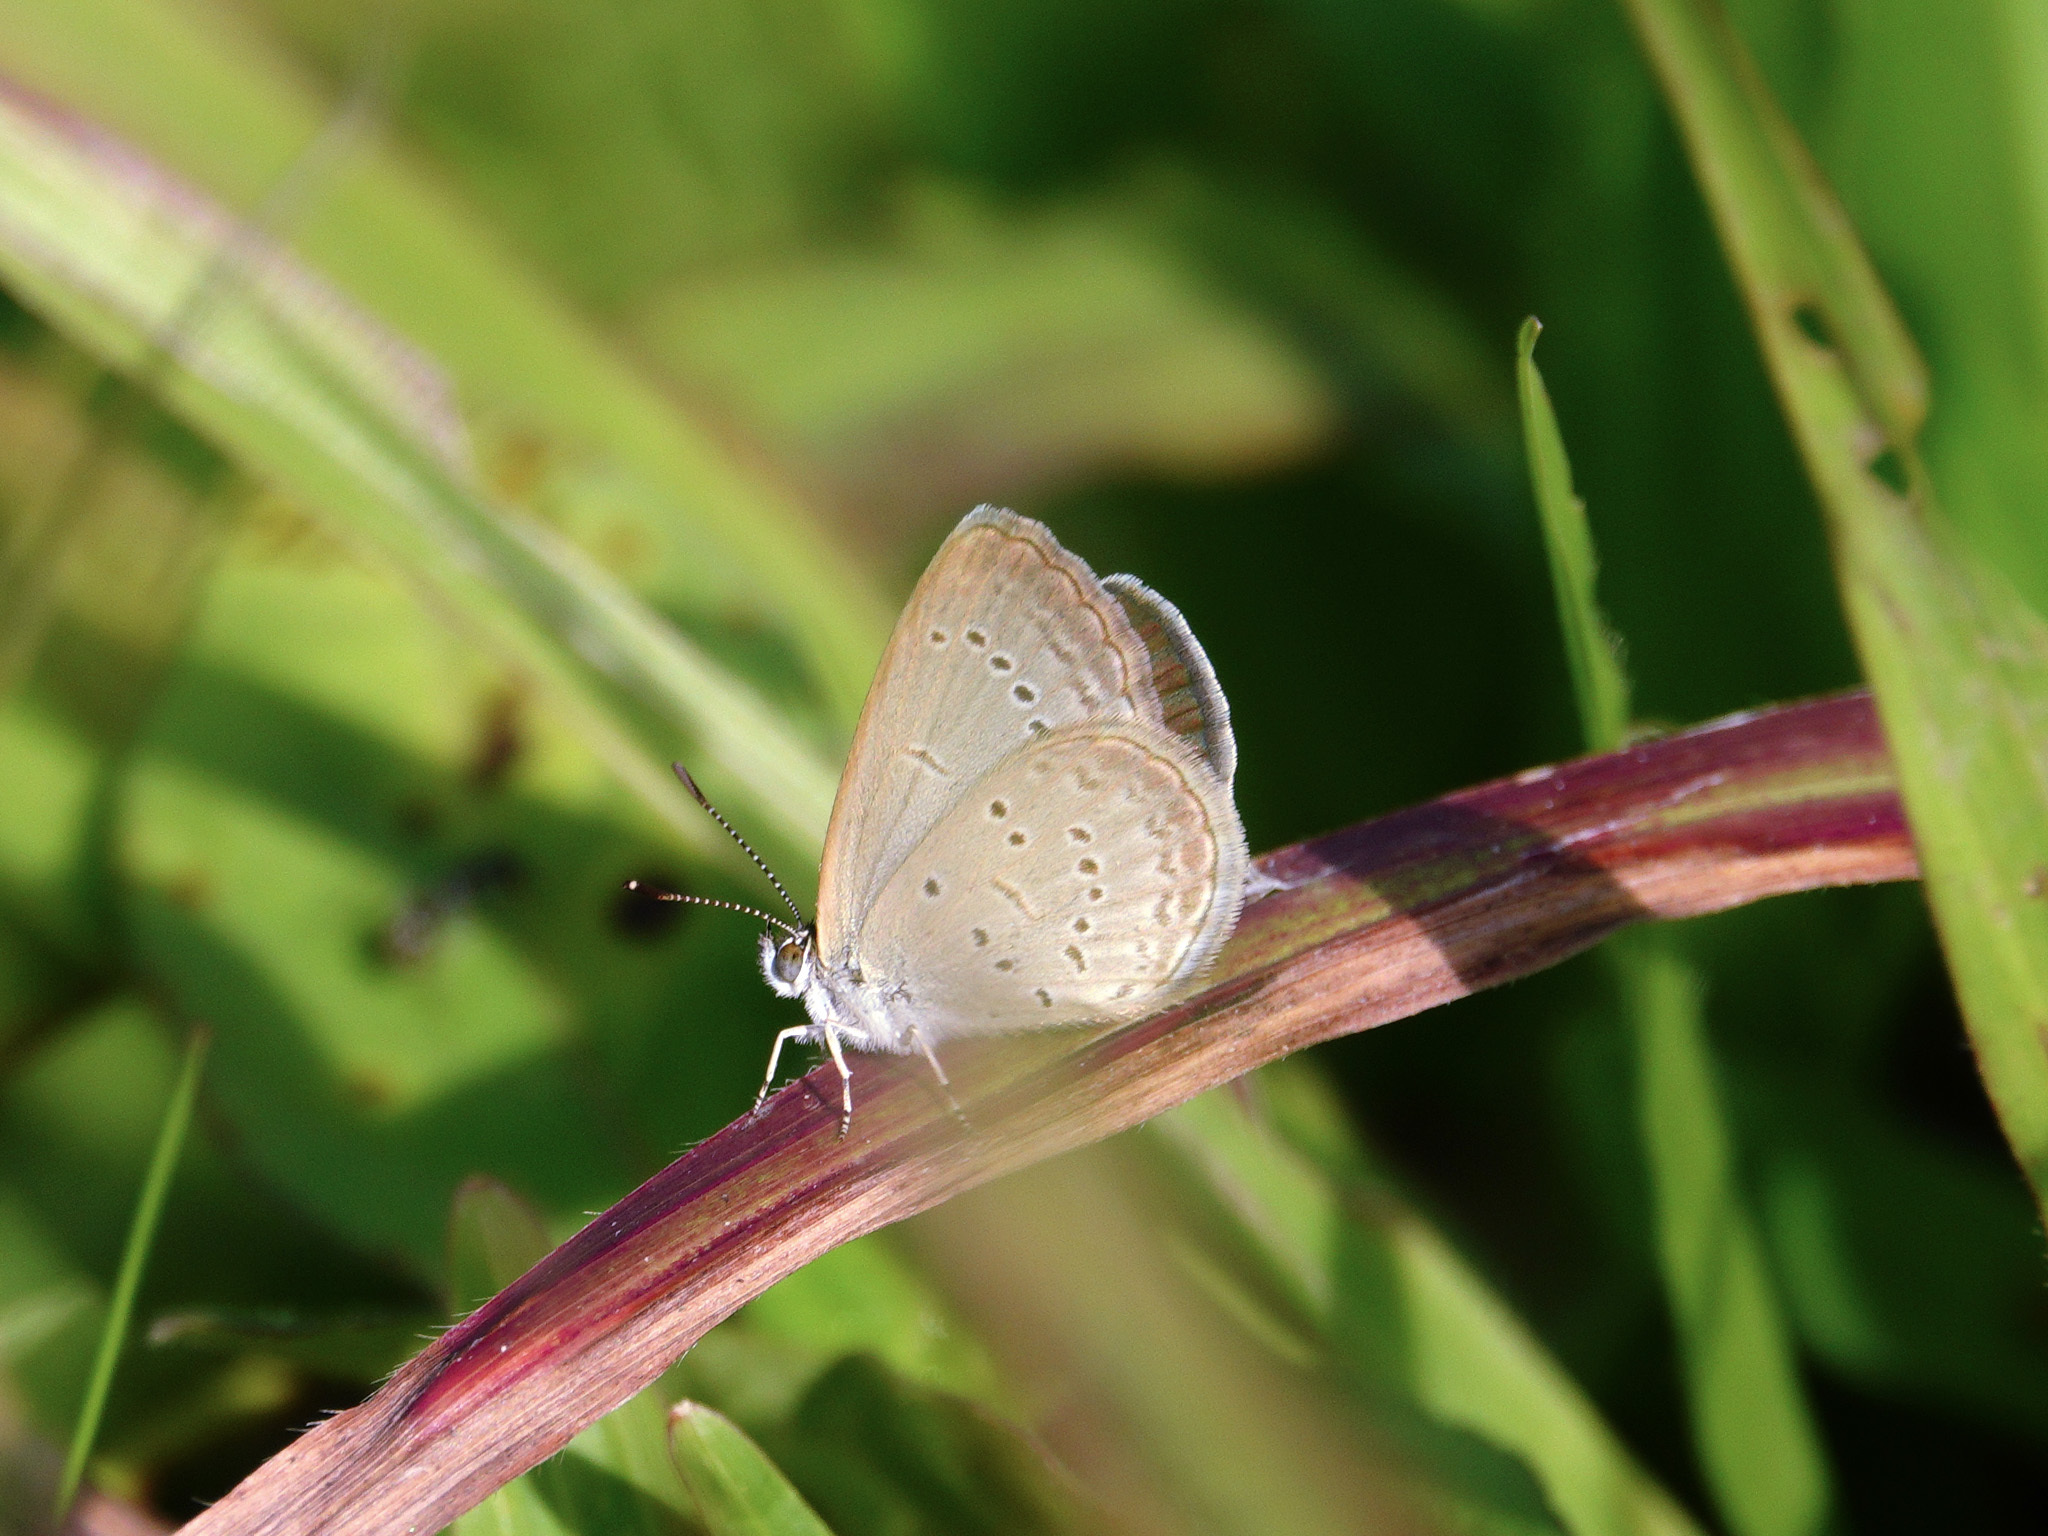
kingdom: Animalia
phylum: Arthropoda
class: Insecta
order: Lepidoptera
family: Lycaenidae
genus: Zizina
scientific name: Zizina otis
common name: Lesser grass blue
